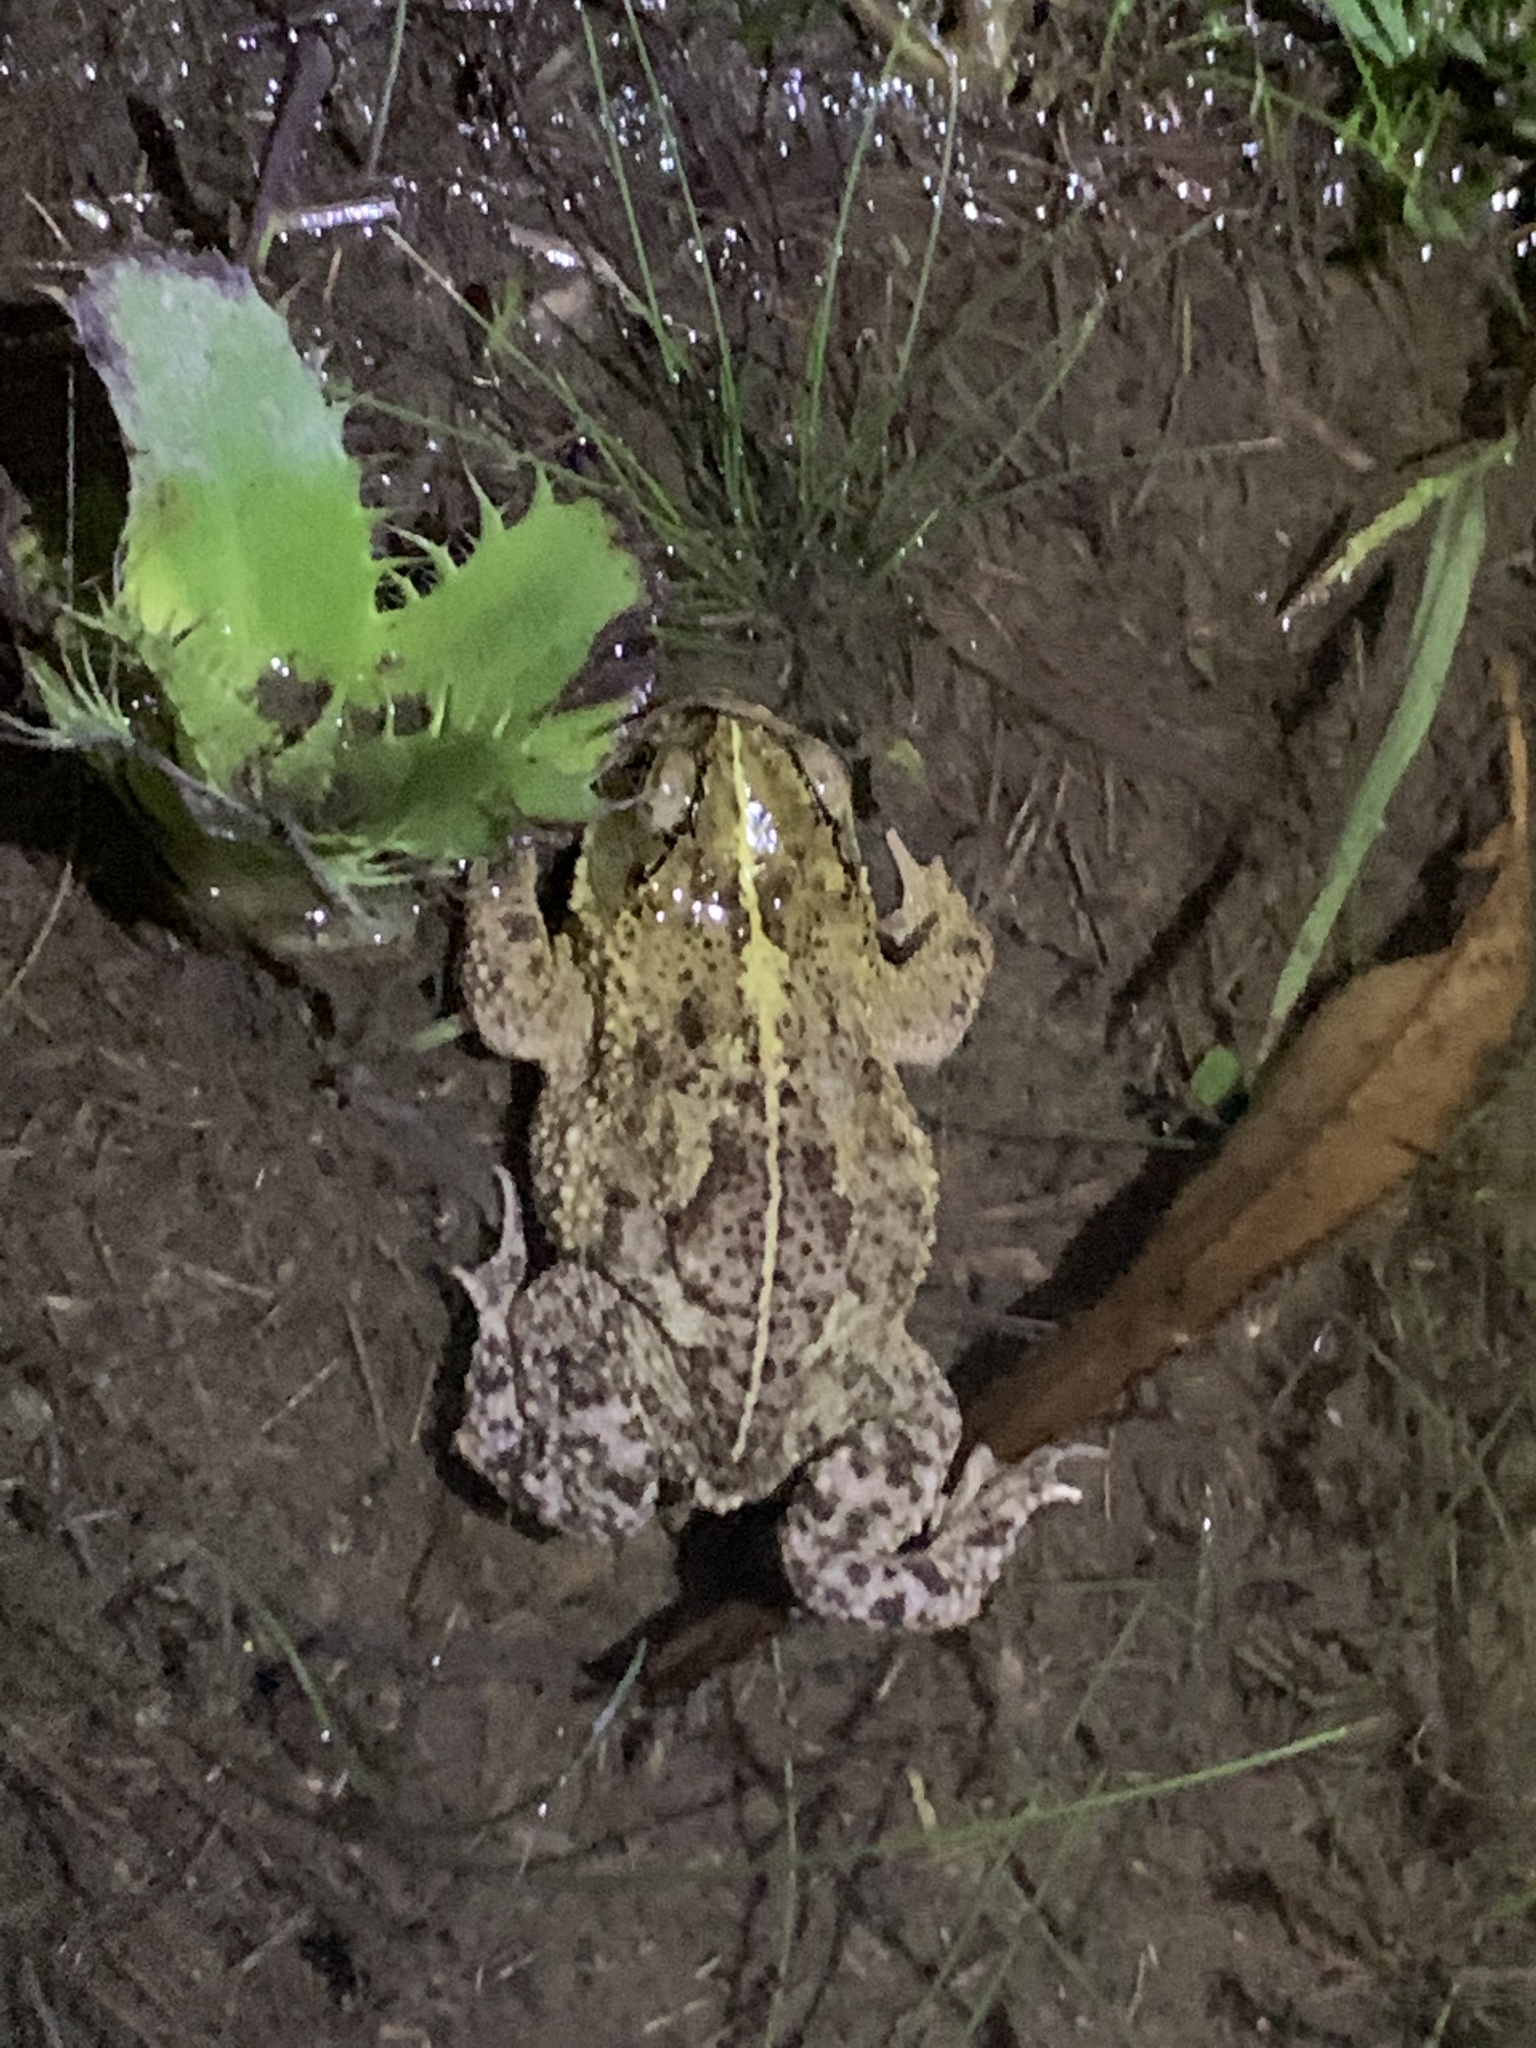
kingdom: Animalia
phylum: Chordata
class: Amphibia
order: Anura
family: Bufonidae
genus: Rhinella
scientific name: Rhinella dorbignyi
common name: D´orbigny’s toad
